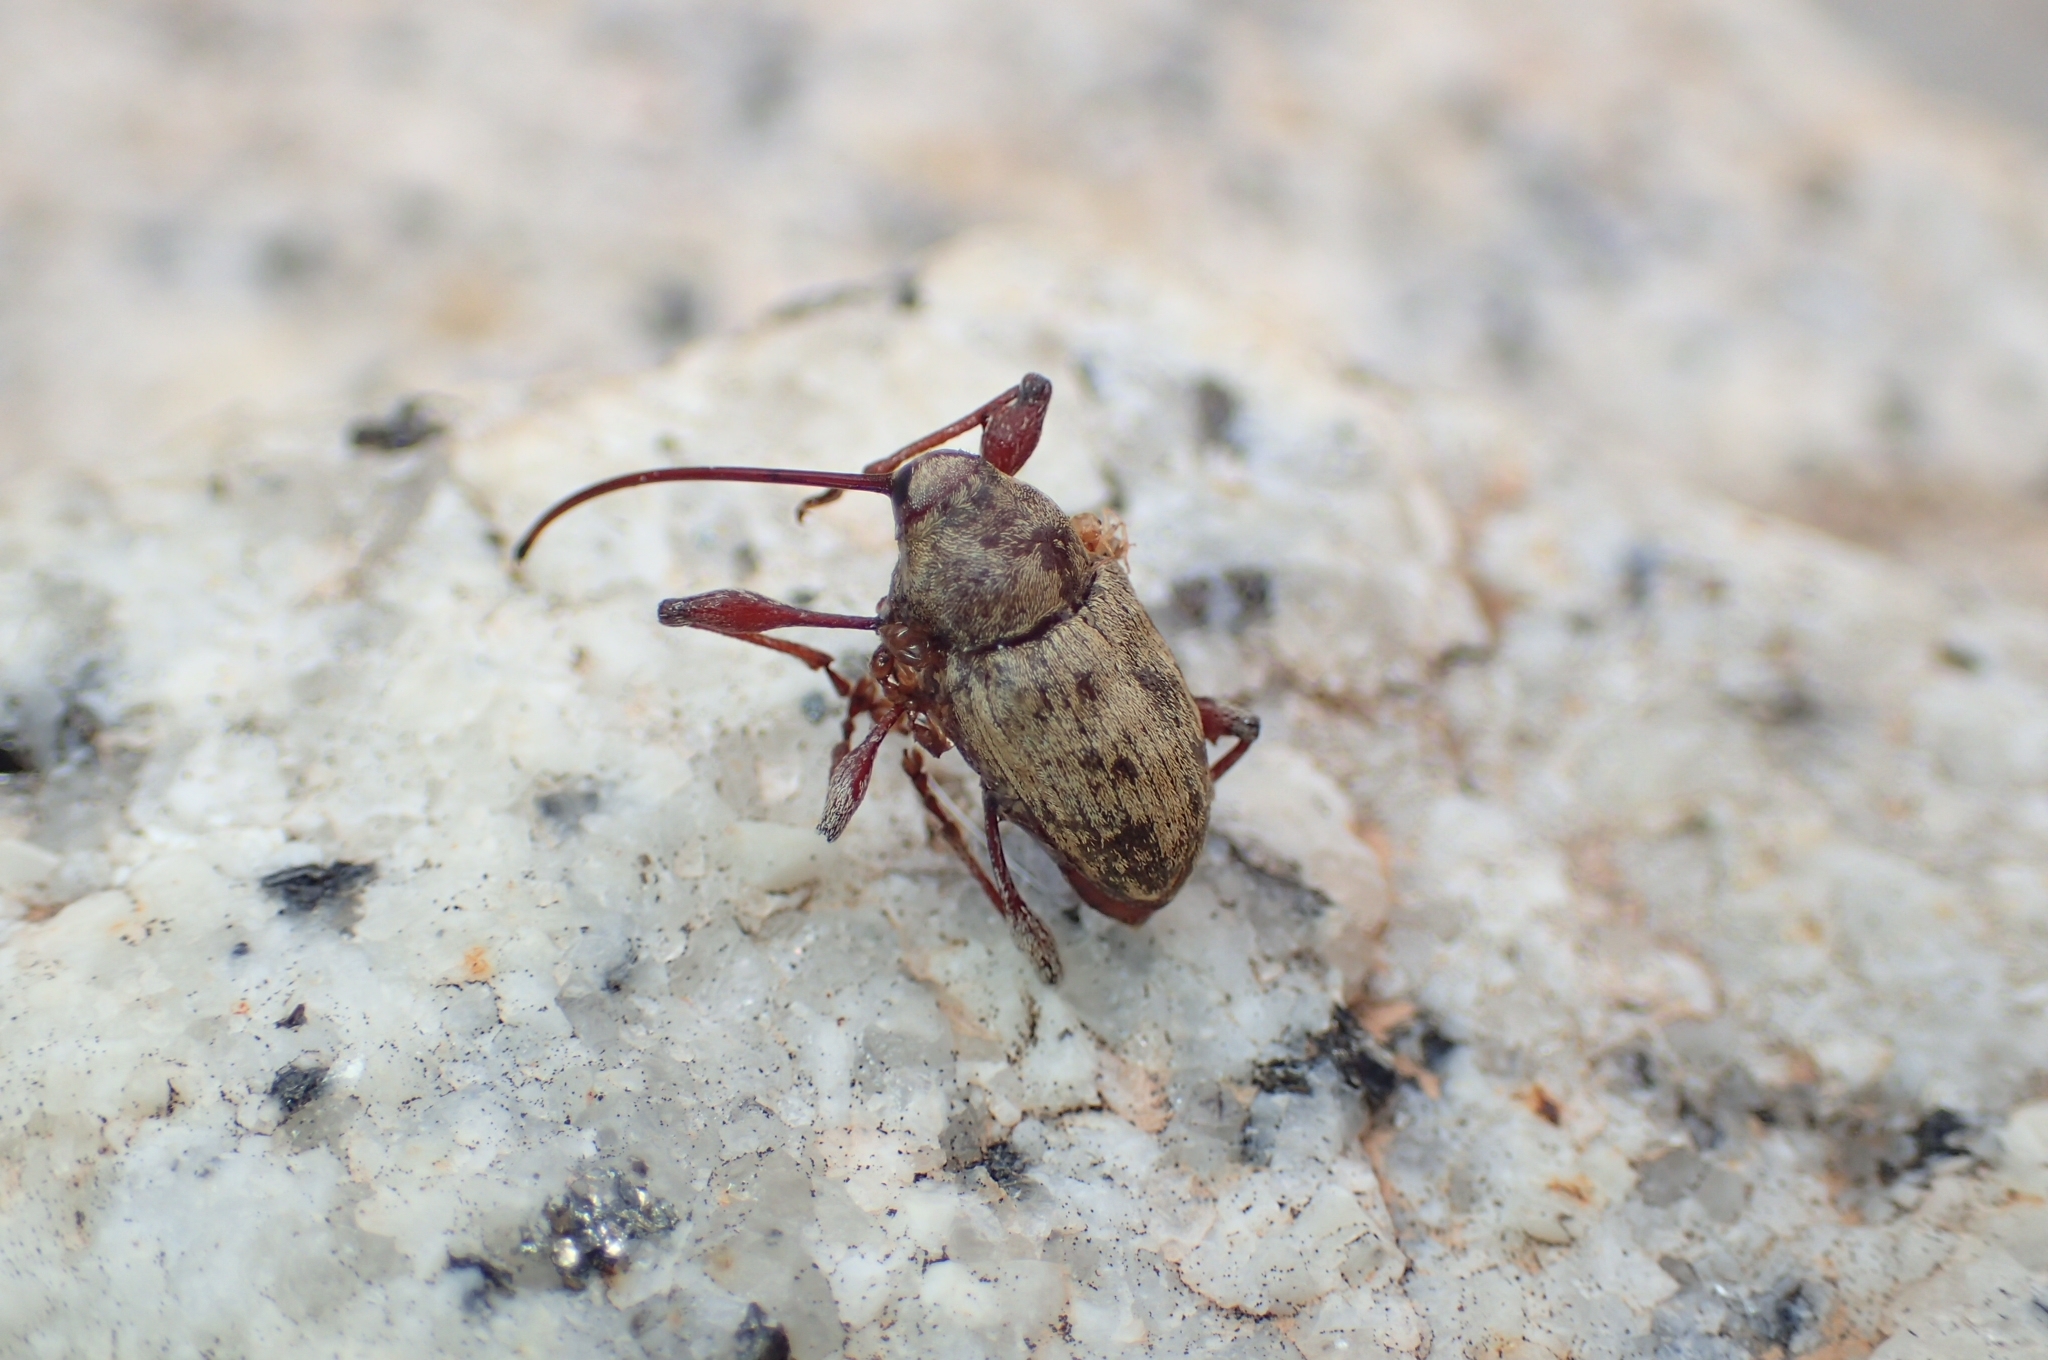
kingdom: Animalia
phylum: Arthropoda
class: Insecta
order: Coleoptera
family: Curculionidae
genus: Curculio
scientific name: Curculio elephas
